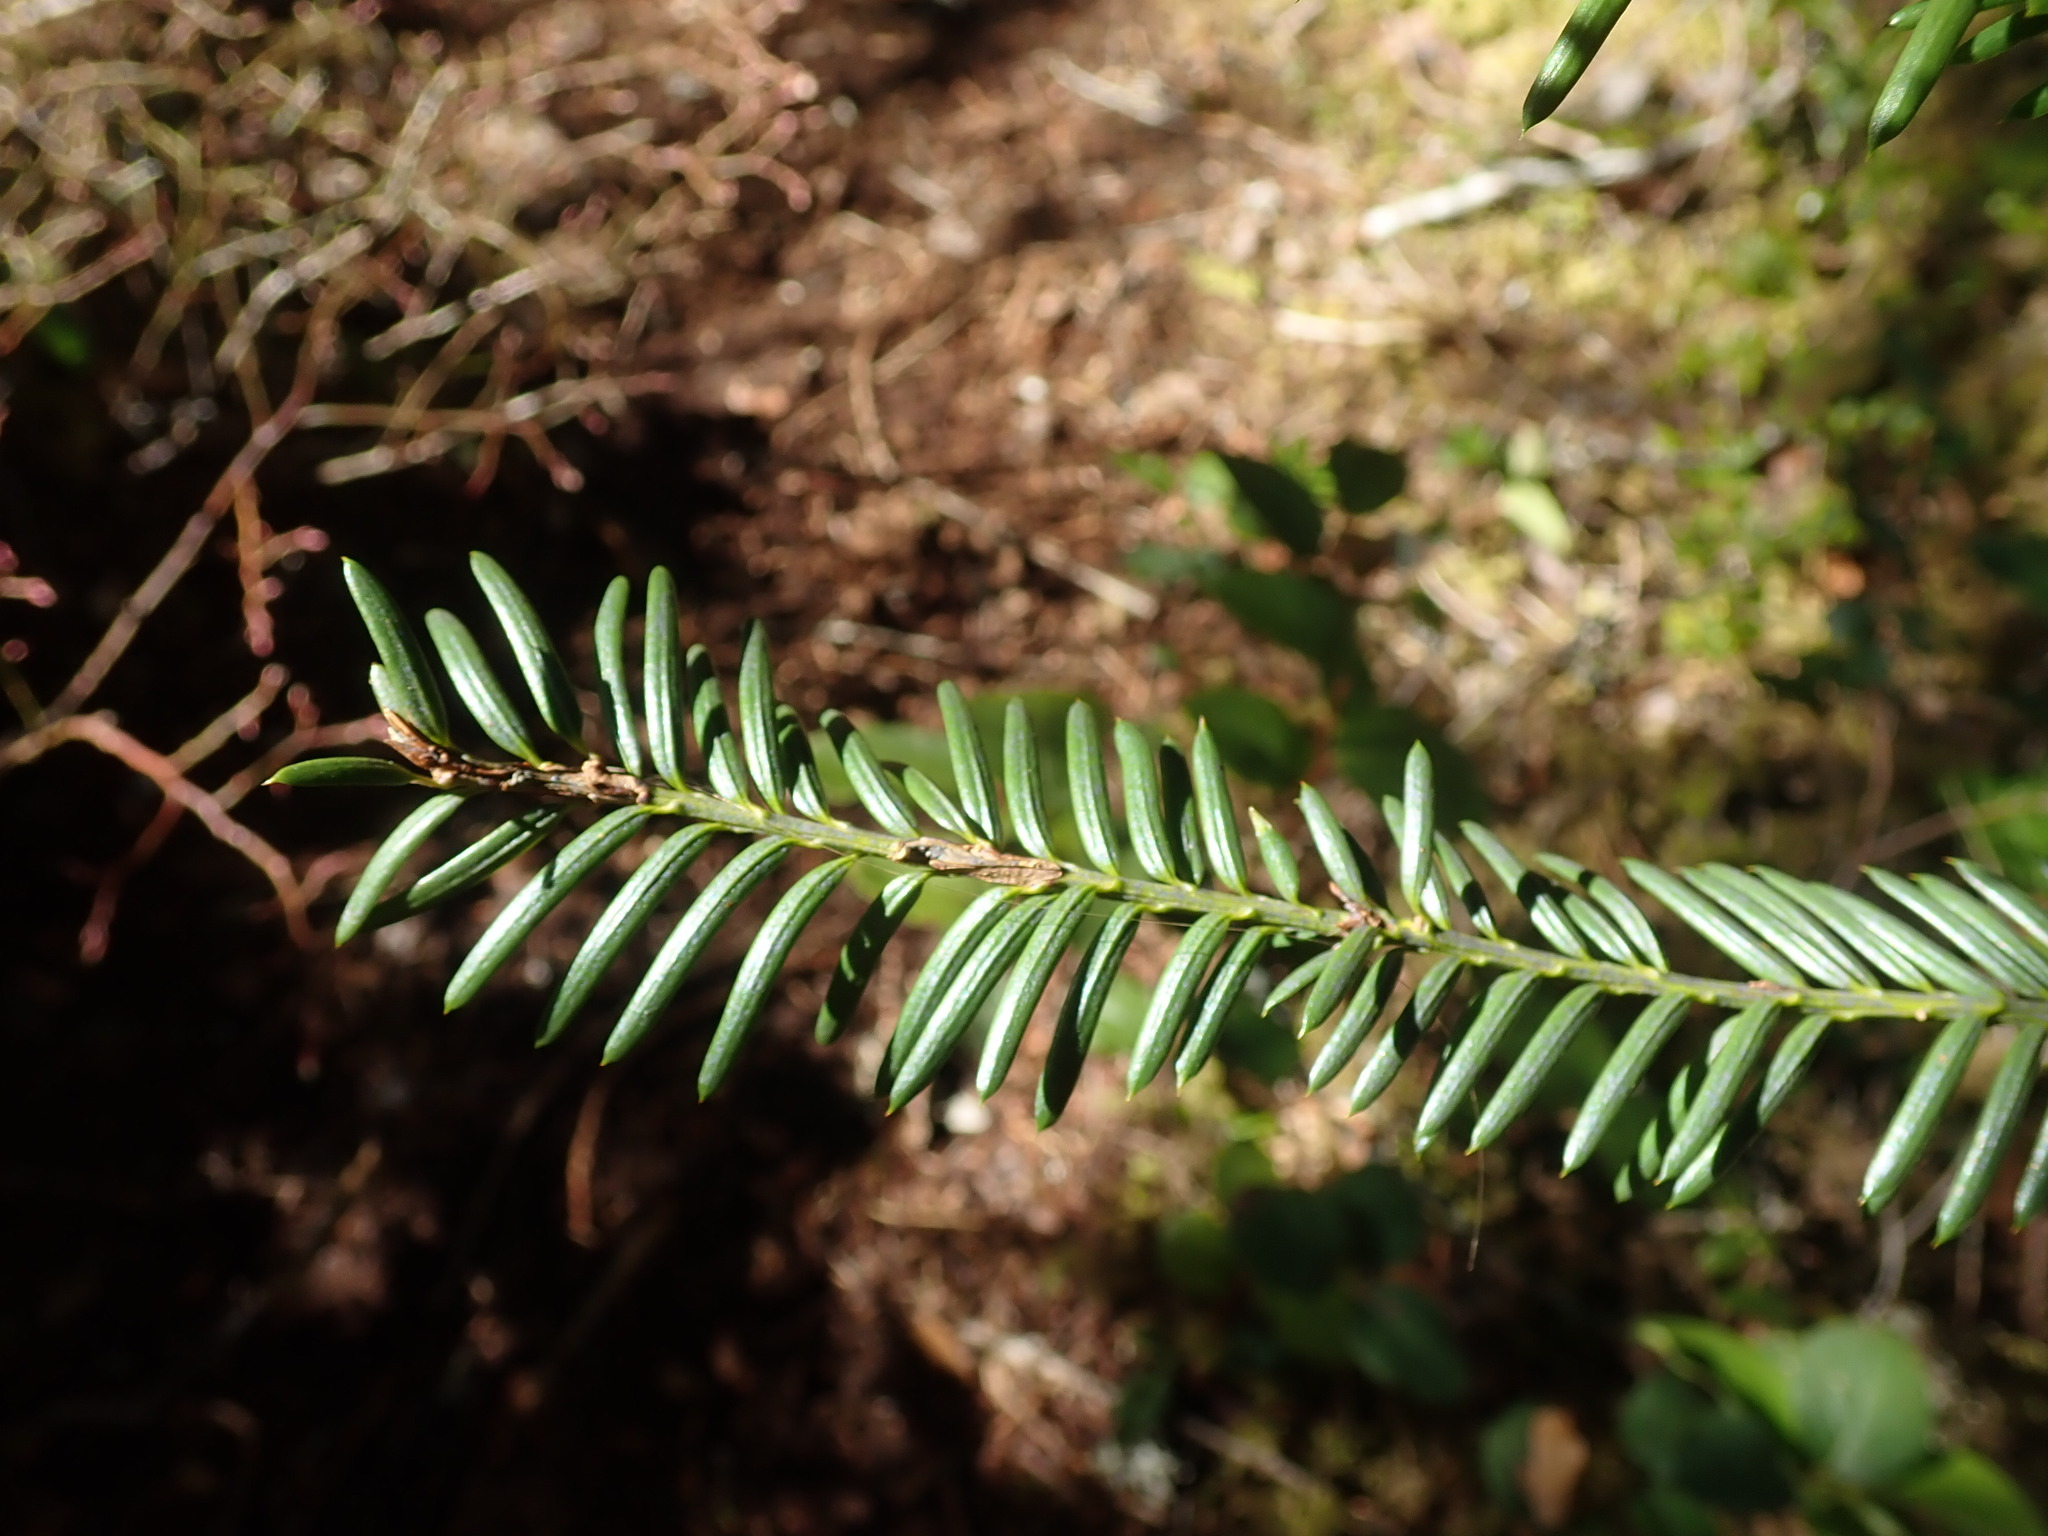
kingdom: Plantae
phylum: Tracheophyta
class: Pinopsida
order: Pinales
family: Taxaceae
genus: Taxus
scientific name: Taxus brevifolia
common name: Pacific yew
